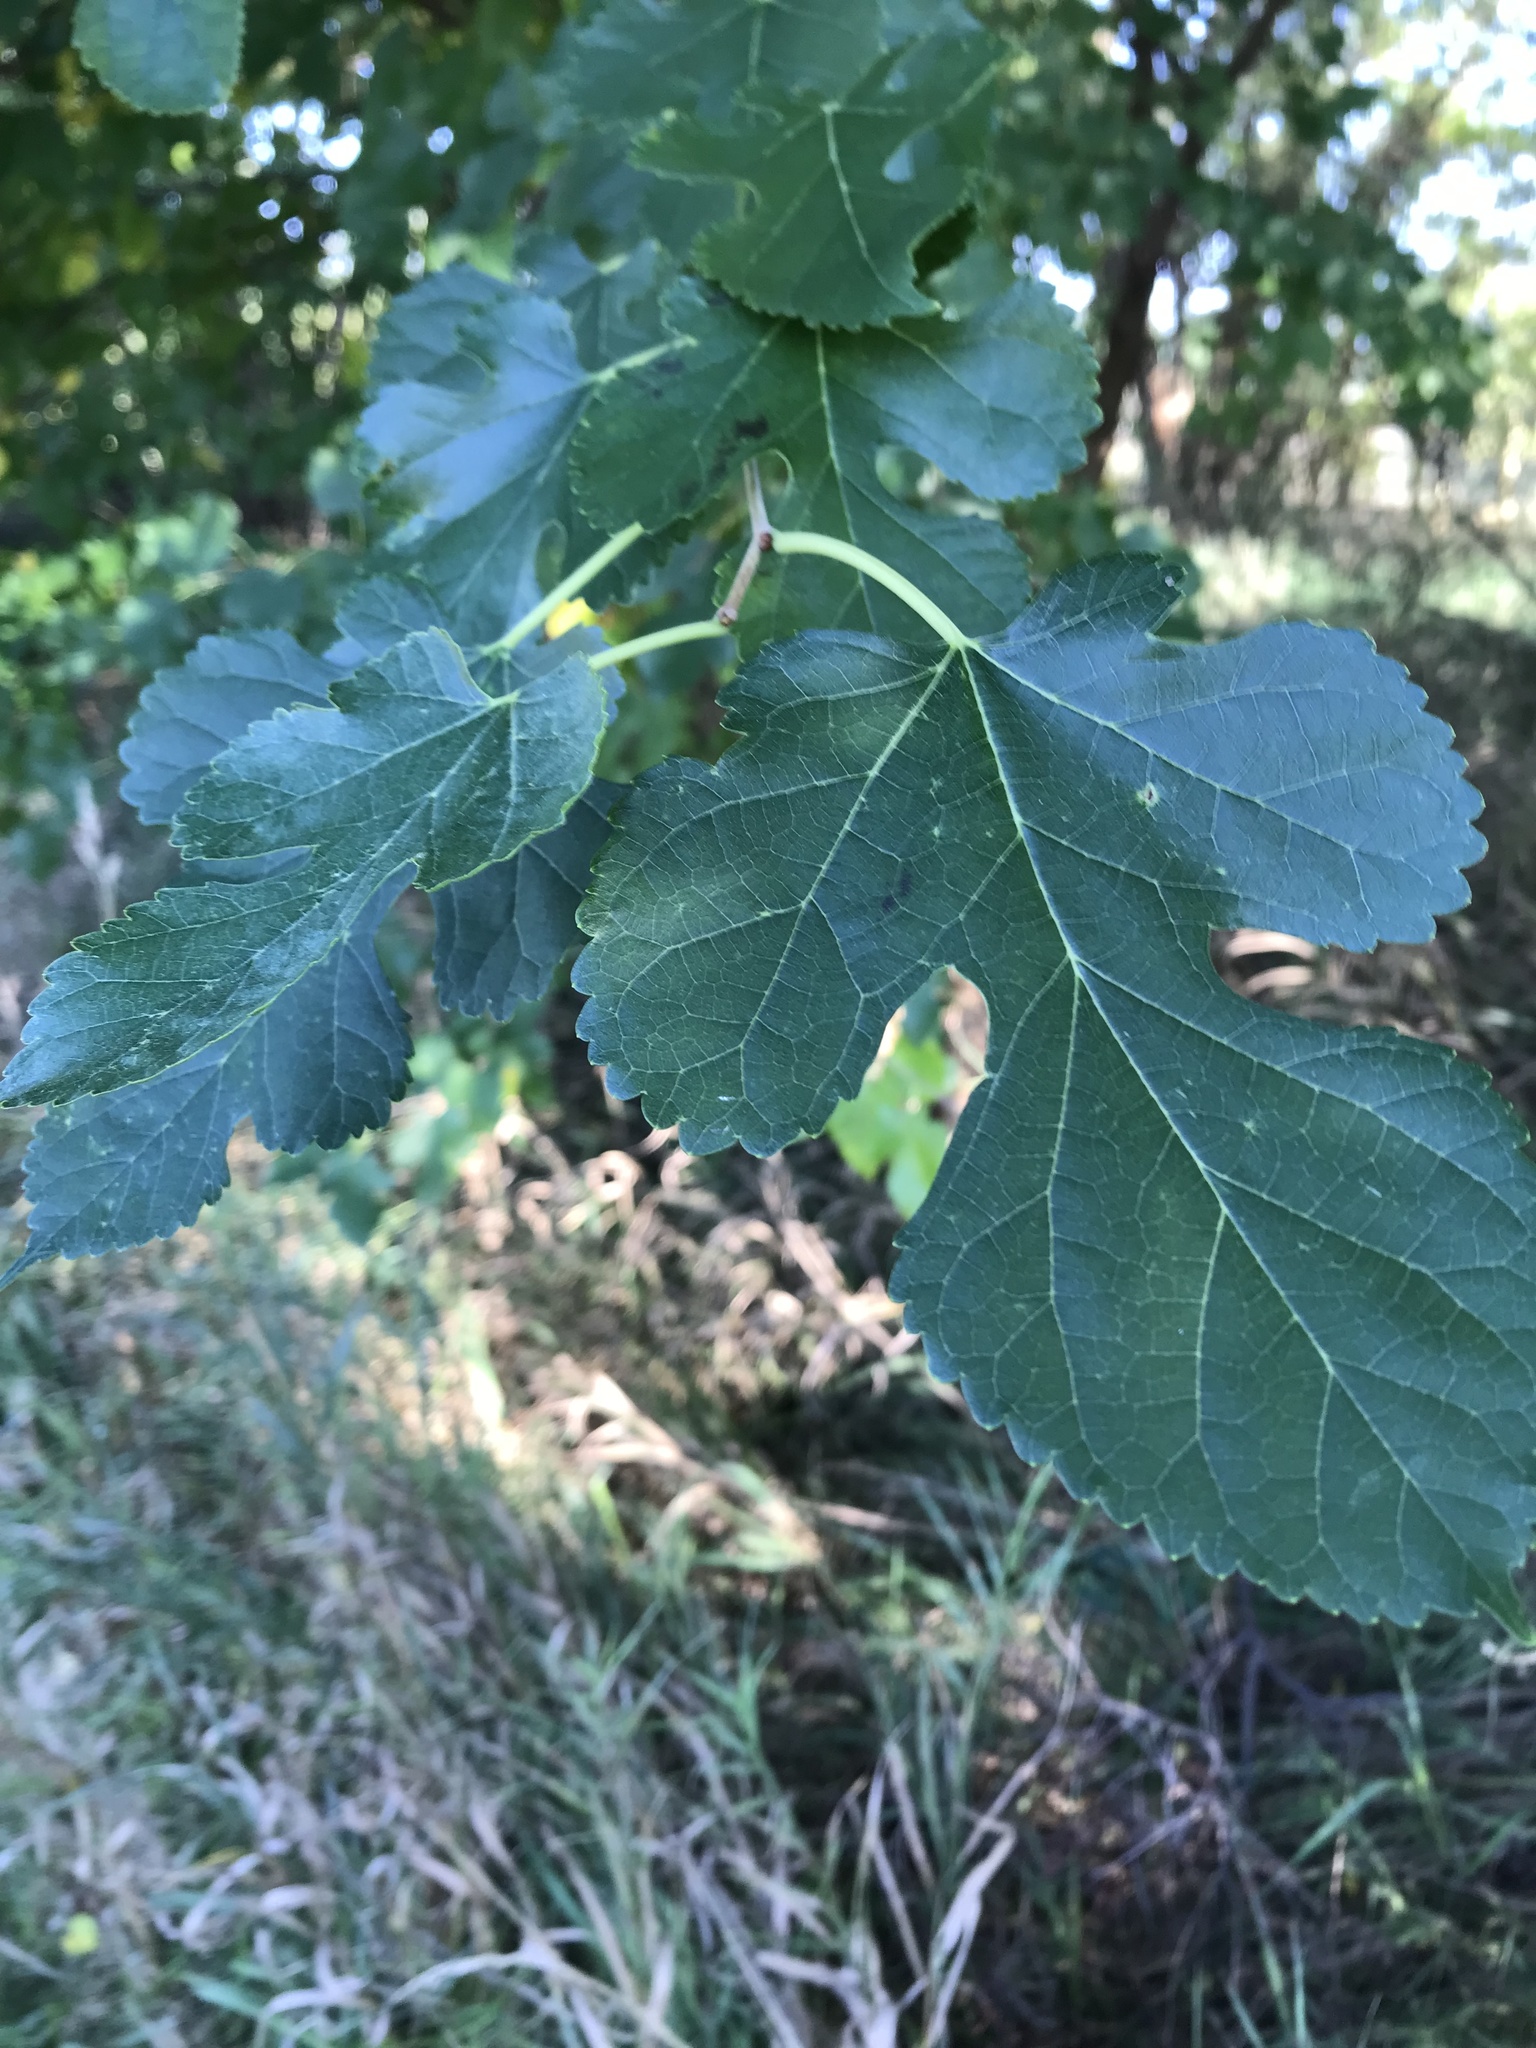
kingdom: Plantae
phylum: Tracheophyta
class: Magnoliopsida
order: Rosales
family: Moraceae
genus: Morus
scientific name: Morus alba
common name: White mulberry
